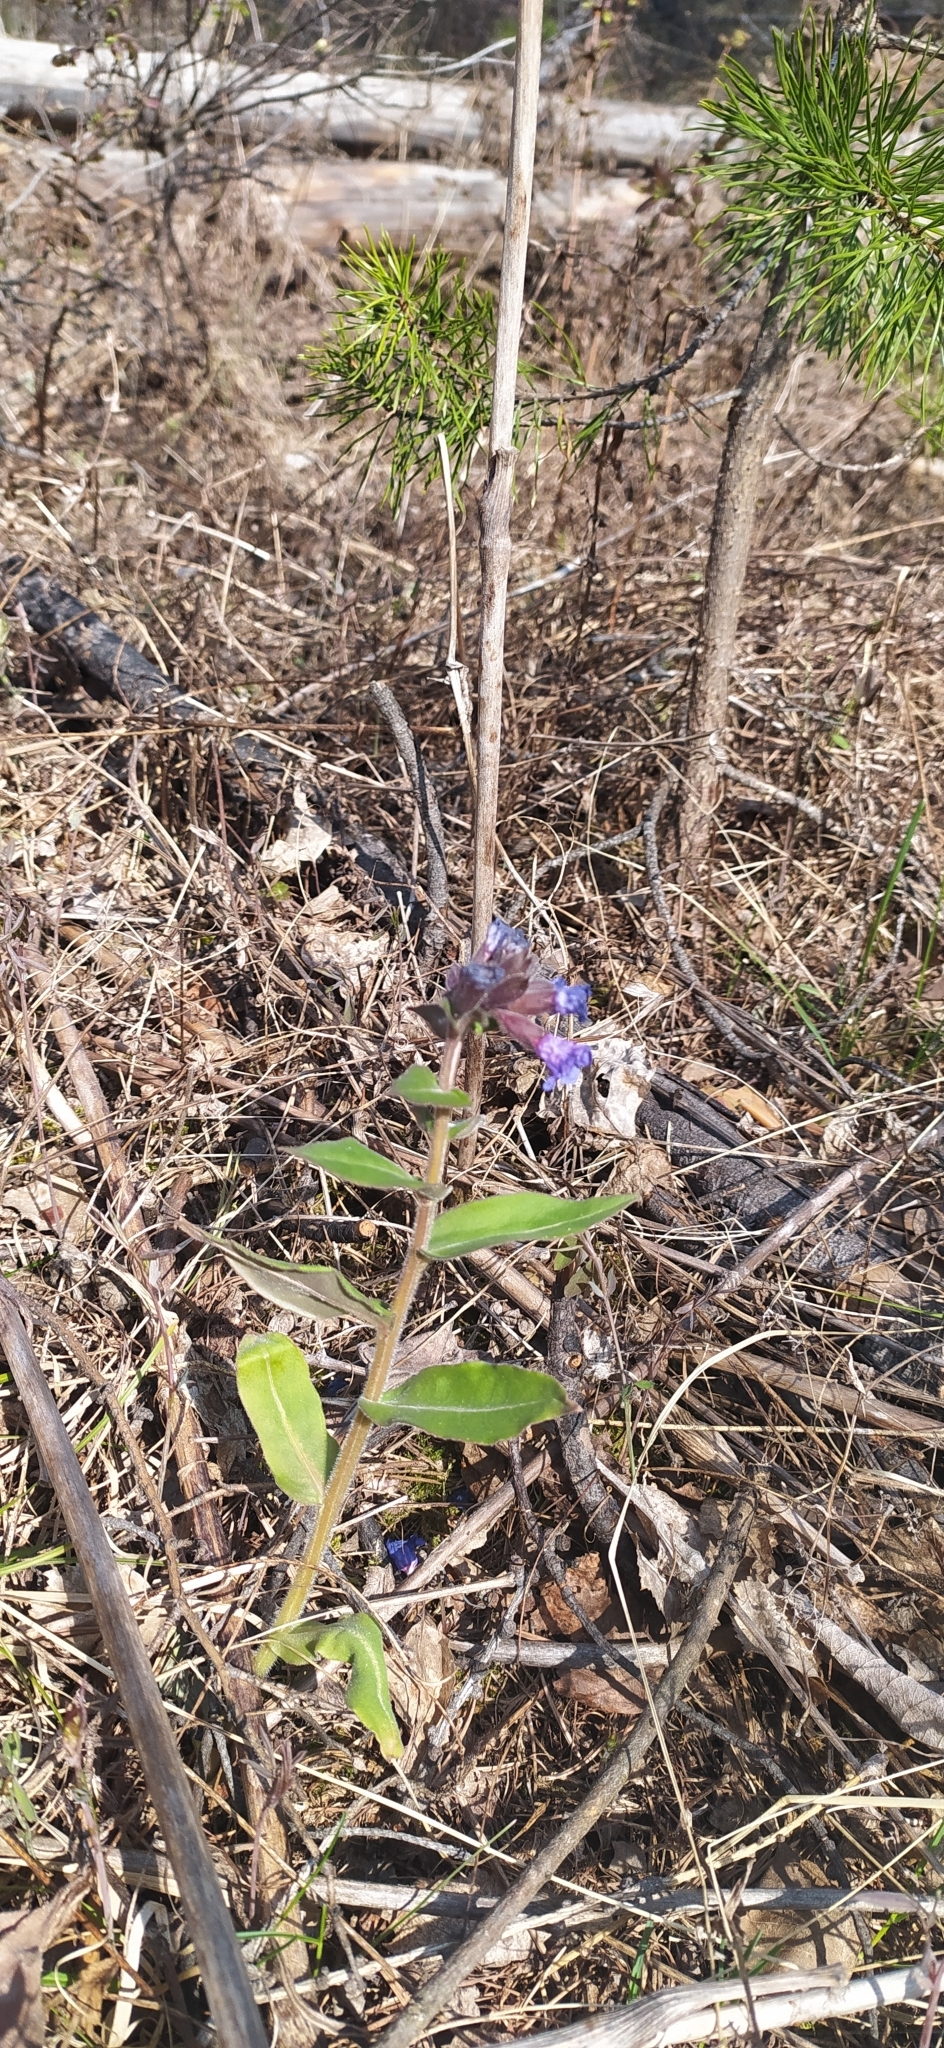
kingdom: Plantae
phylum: Tracheophyta
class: Magnoliopsida
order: Boraginales
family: Boraginaceae
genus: Pulmonaria
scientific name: Pulmonaria mollis
